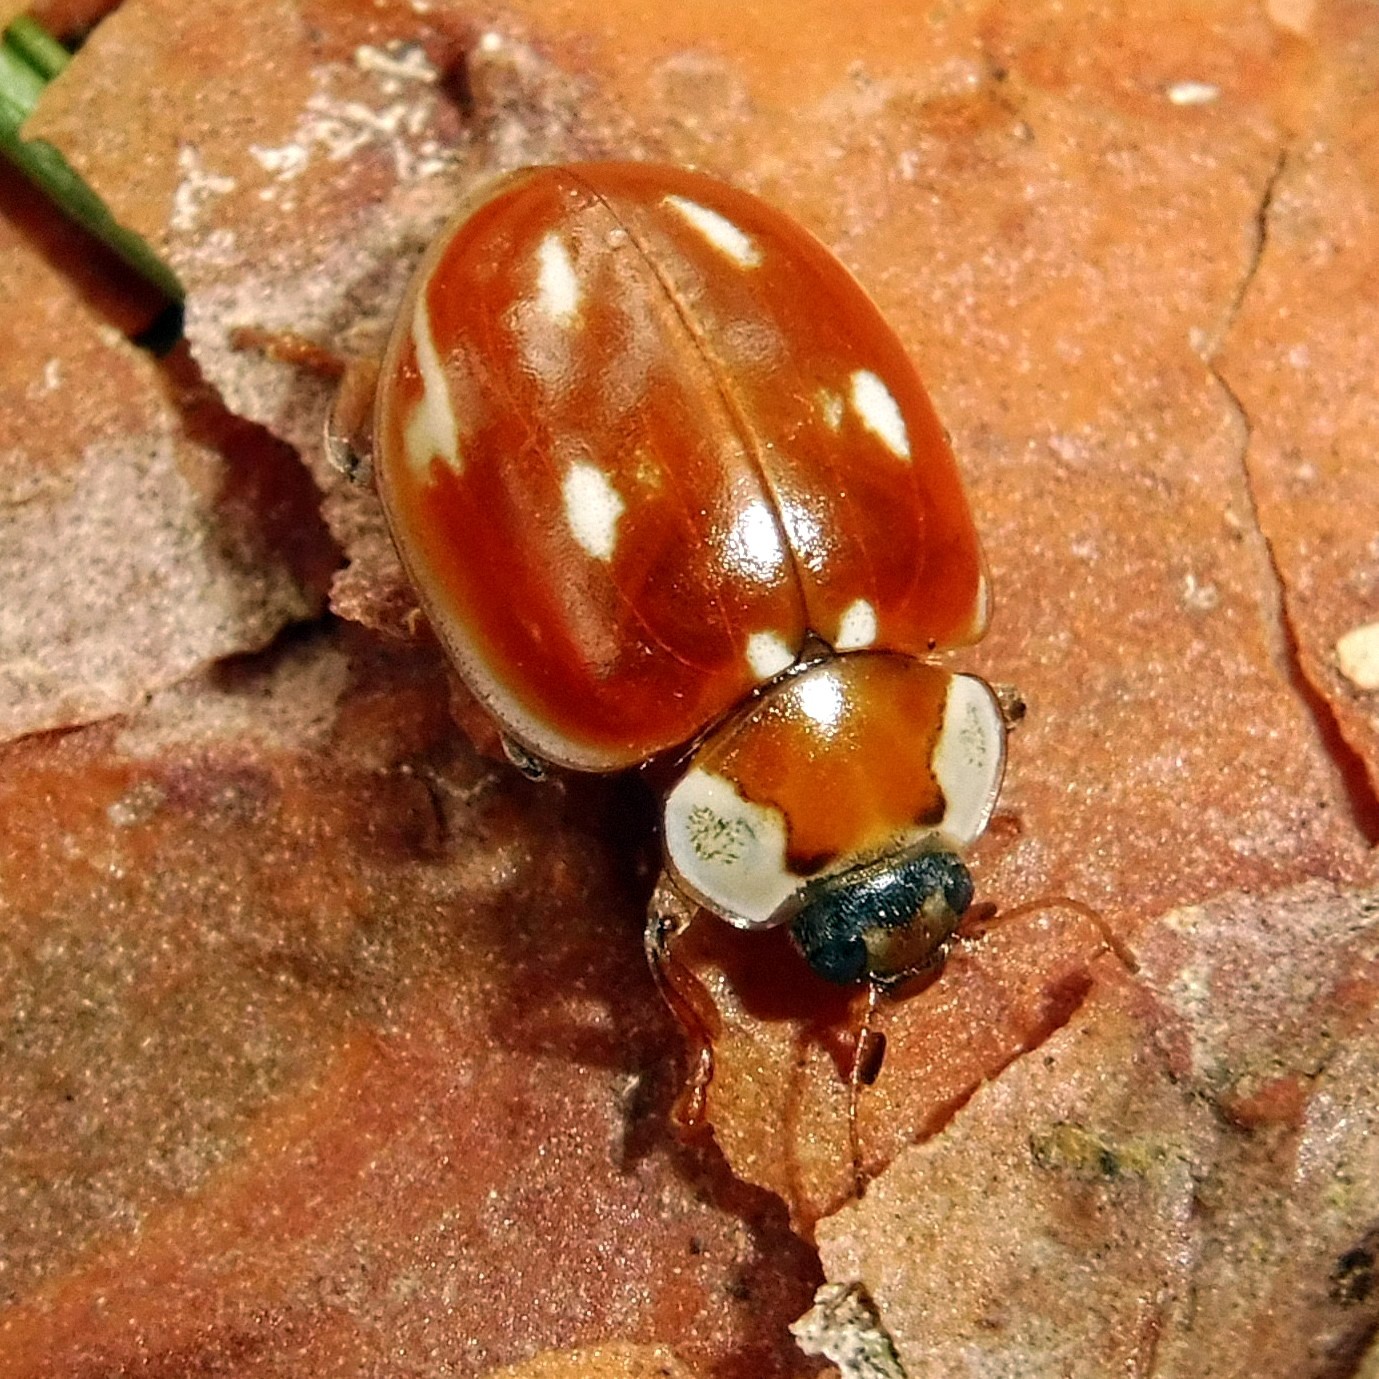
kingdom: Animalia
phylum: Arthropoda
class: Insecta
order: Coleoptera
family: Coccinellidae
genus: Myzia
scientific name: Myzia oblongoguttata
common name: Striped ladybird
